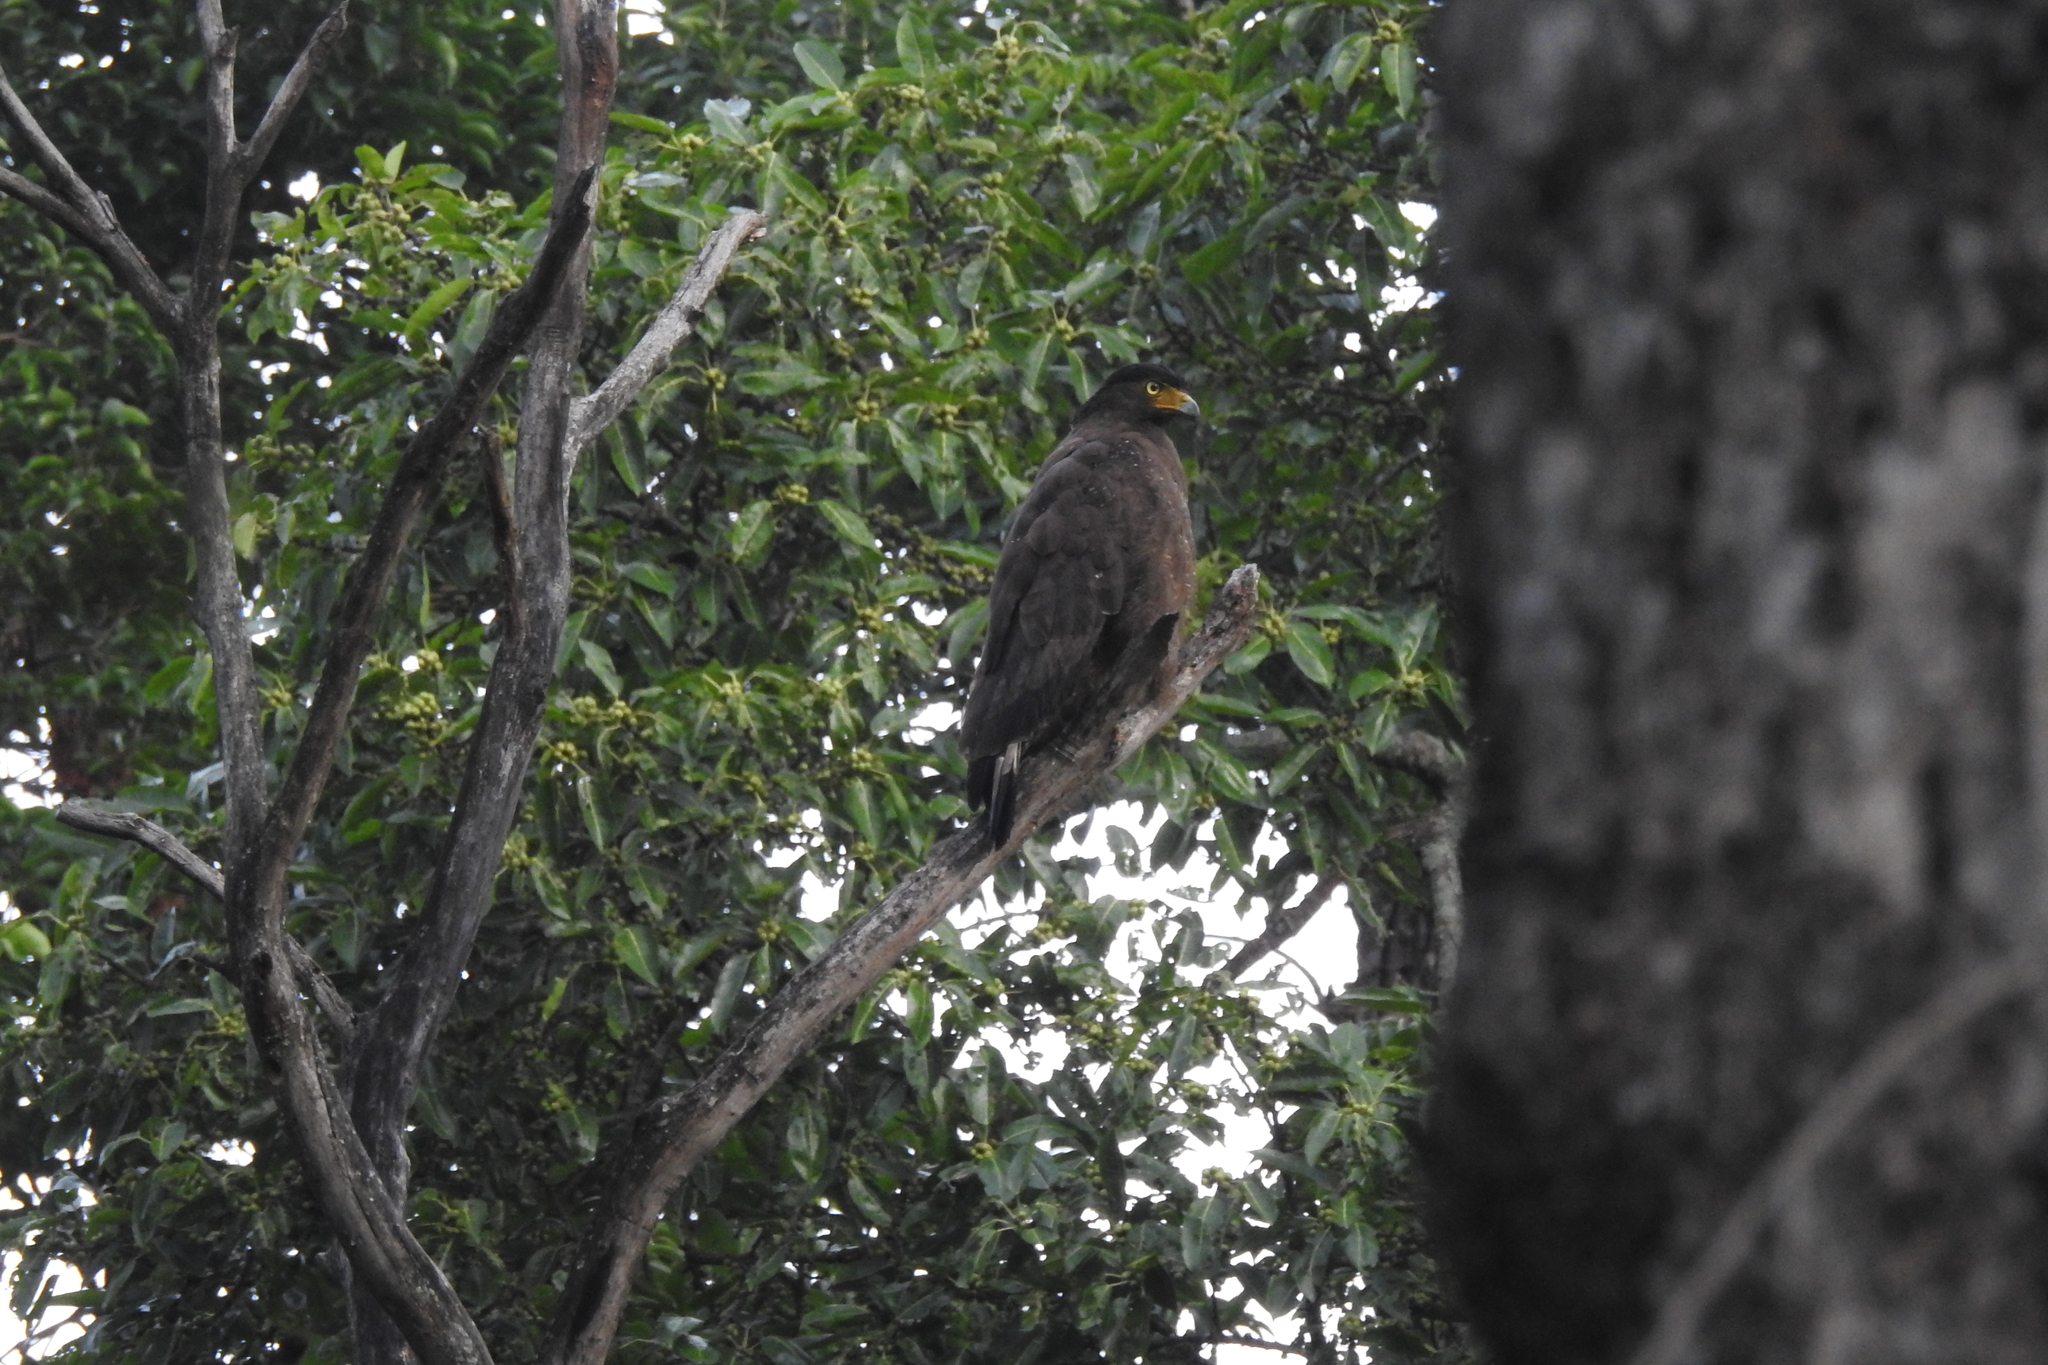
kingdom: Animalia
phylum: Chordata
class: Aves
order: Accipitriformes
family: Accipitridae
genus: Spilornis
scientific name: Spilornis cheela
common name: Crested serpent eagle
